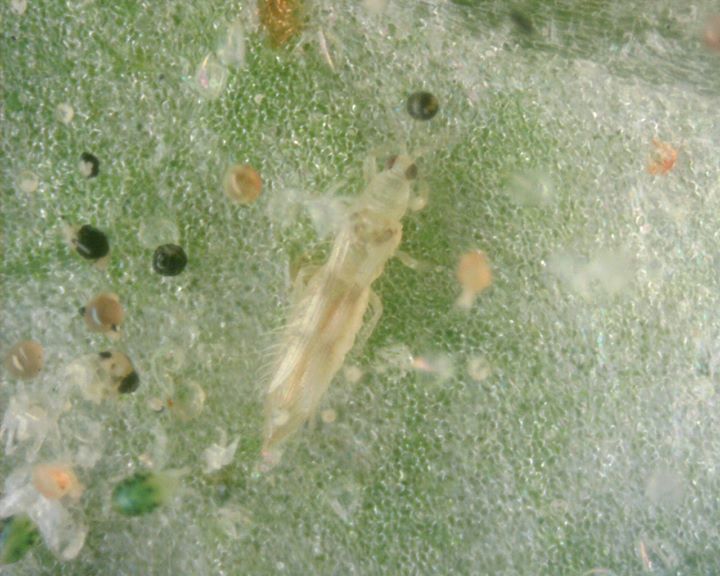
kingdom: Animalia
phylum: Arthropoda
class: Insecta
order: Thysanoptera
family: Thripidae
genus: Scolothrips
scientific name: Scolothrips sexmaculatus
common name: Common thrip
